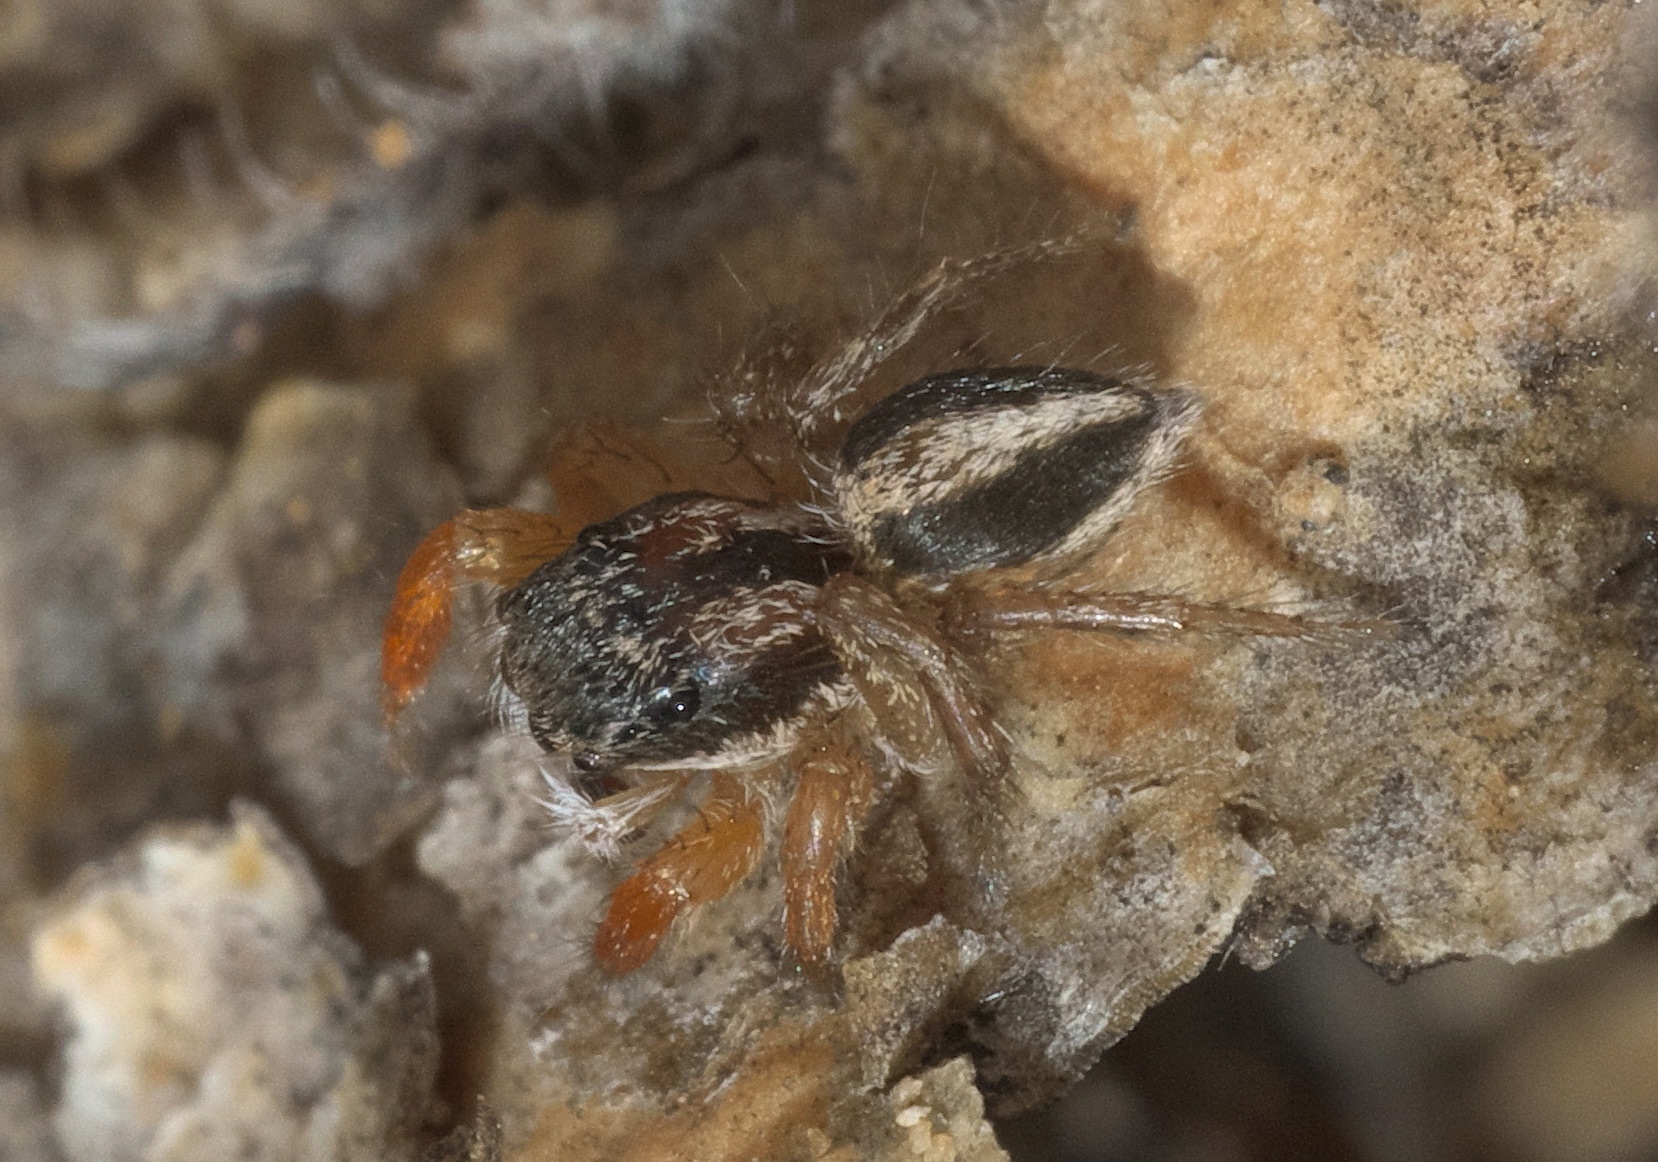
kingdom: Animalia
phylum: Arthropoda
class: Arachnida
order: Araneae
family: Salticidae
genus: Habronattus
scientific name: Habronattus icenoglei
